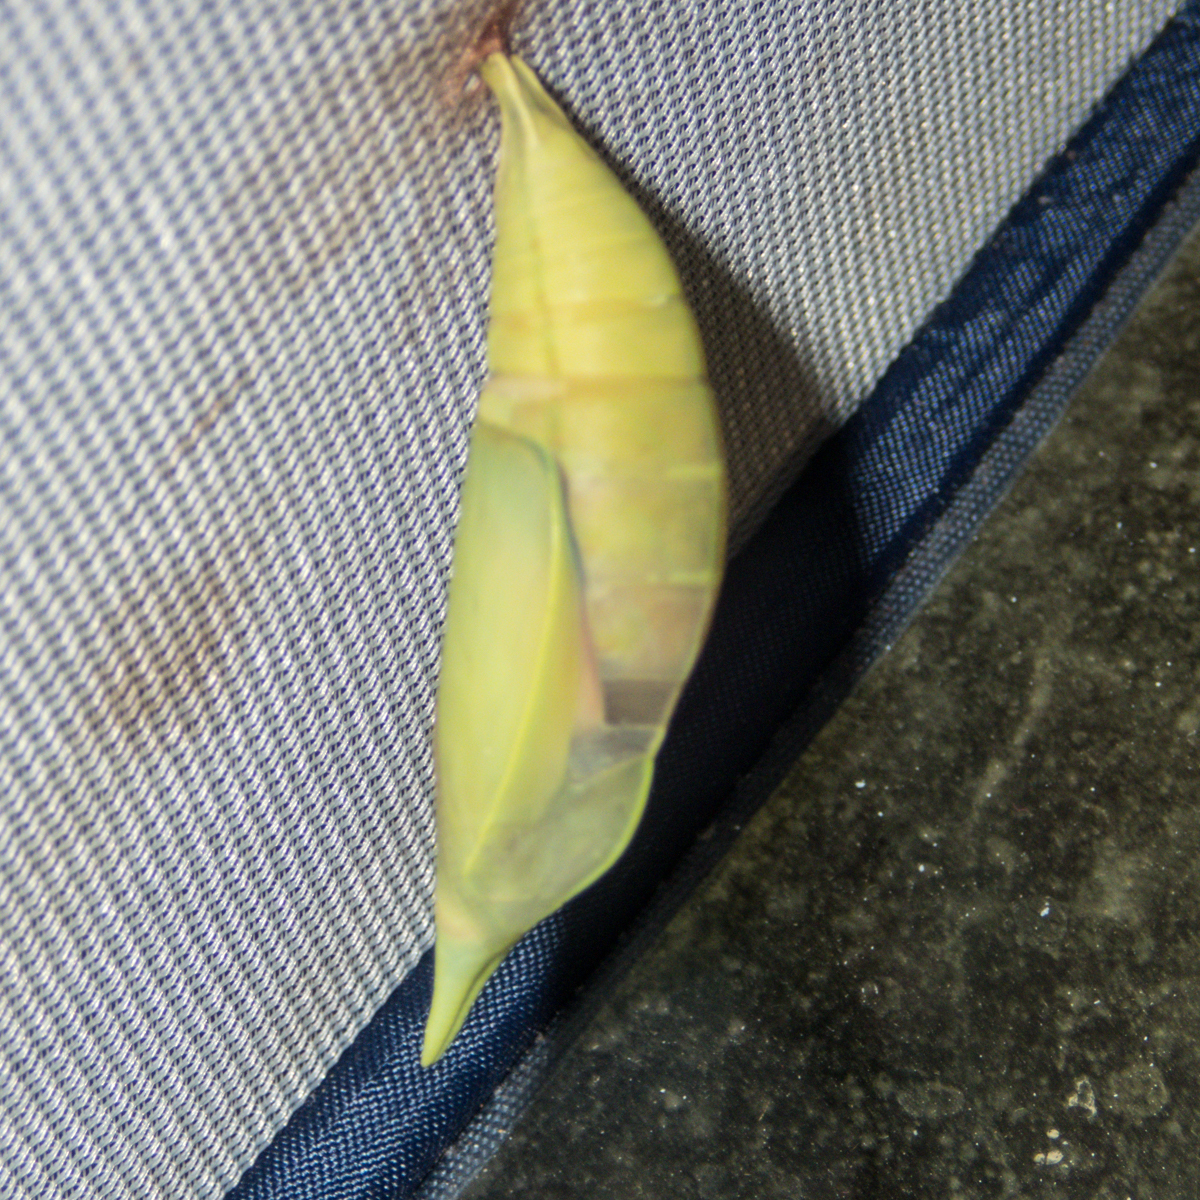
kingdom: Animalia
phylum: Arthropoda
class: Insecta
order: Lepidoptera
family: Nymphalidae
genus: Amathusia
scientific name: Amathusia phidippus
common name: Palm king
